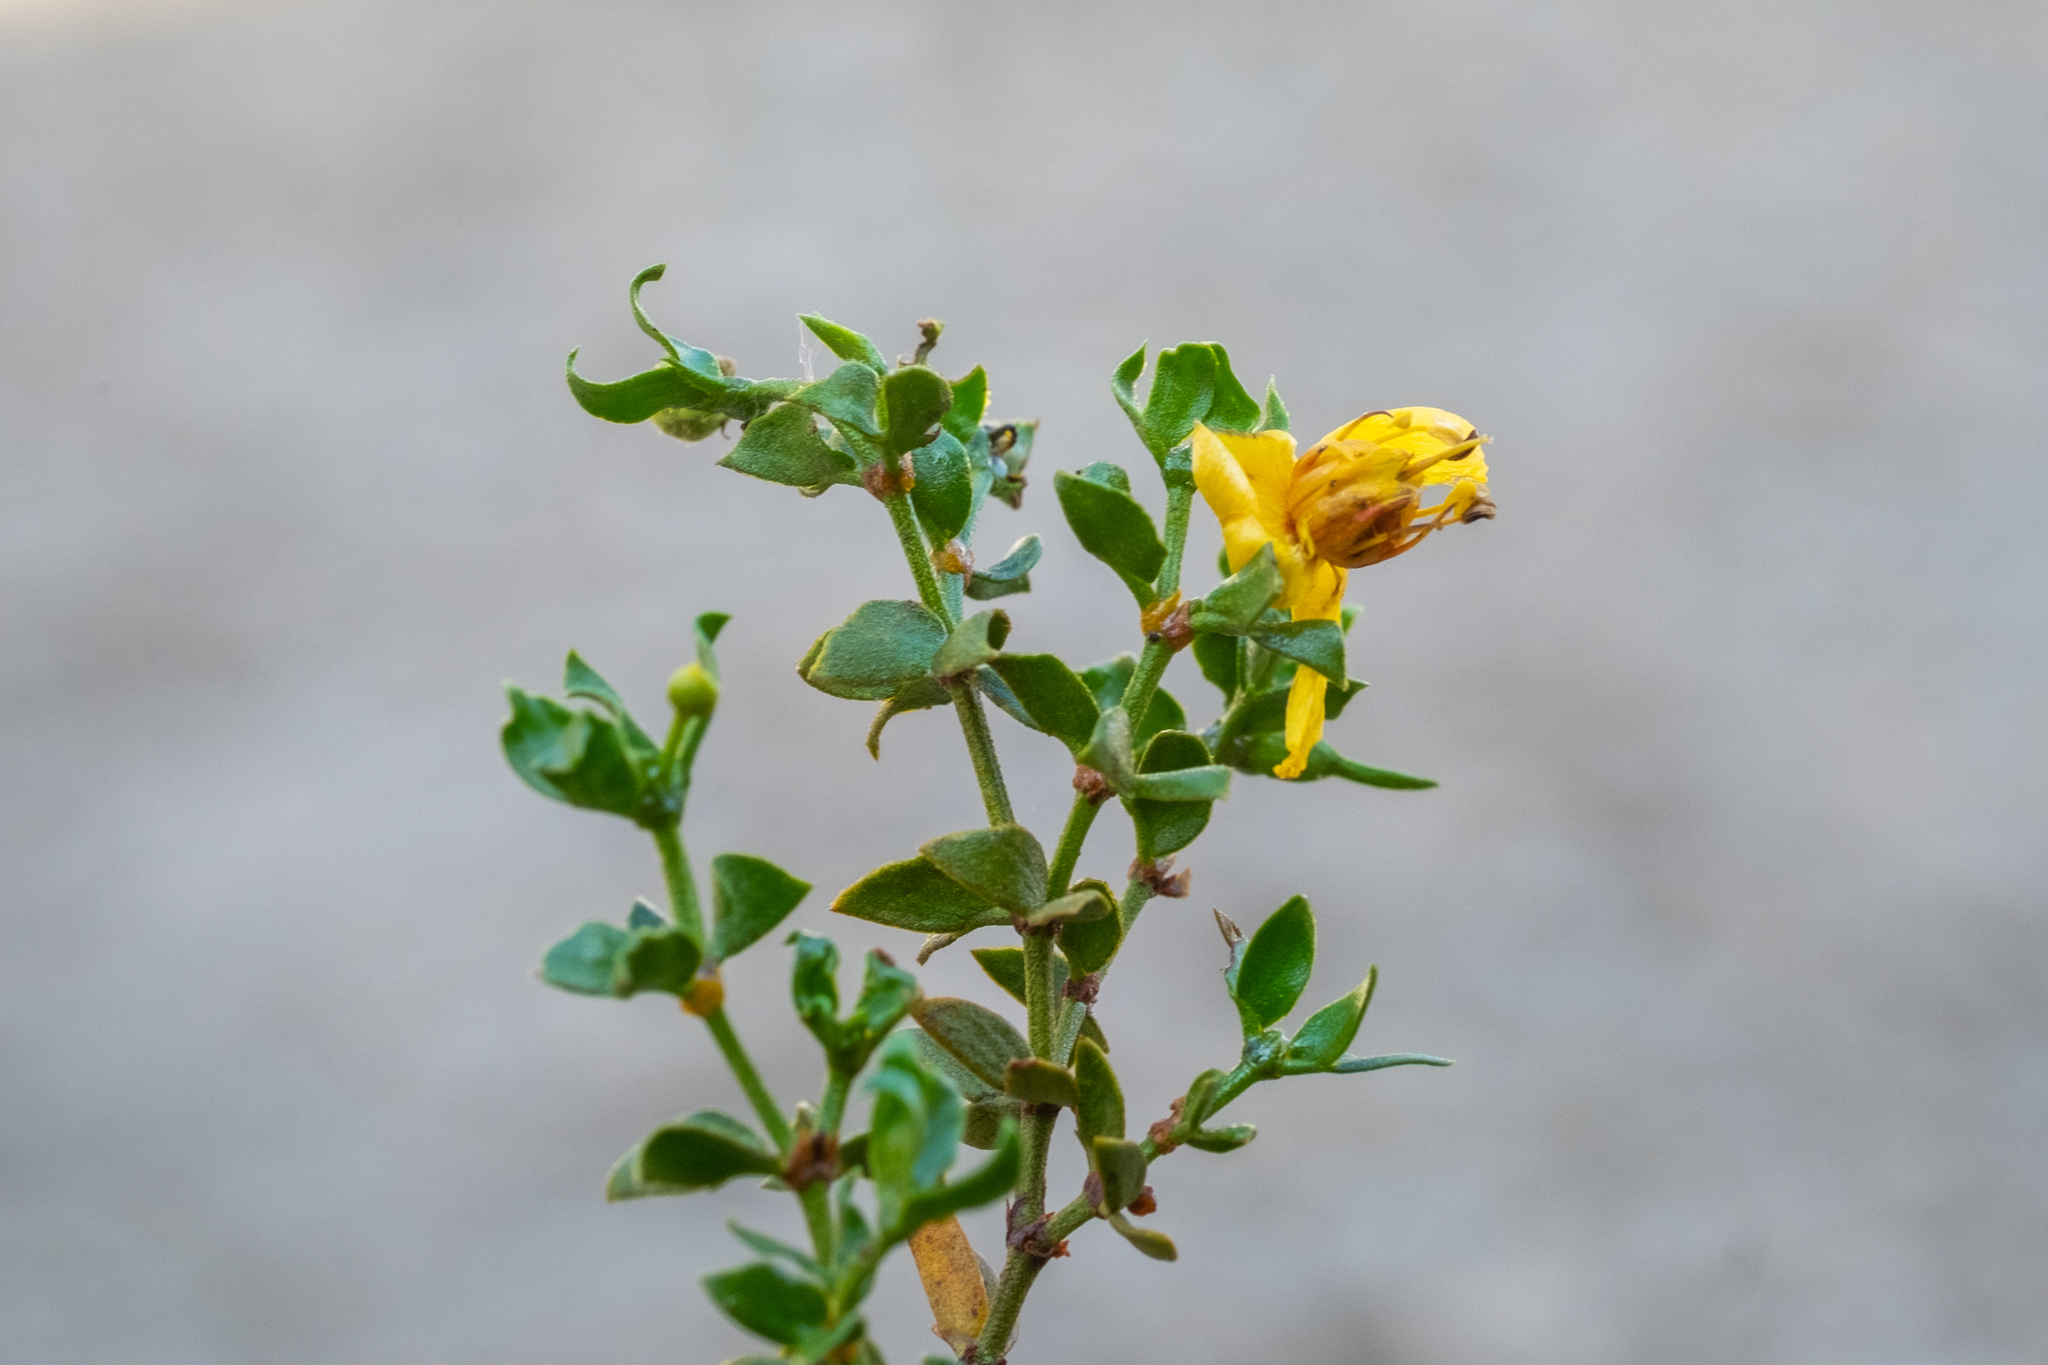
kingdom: Plantae
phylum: Tracheophyta
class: Magnoliopsida
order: Zygophyllales
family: Zygophyllaceae
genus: Larrea
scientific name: Larrea tridentata
